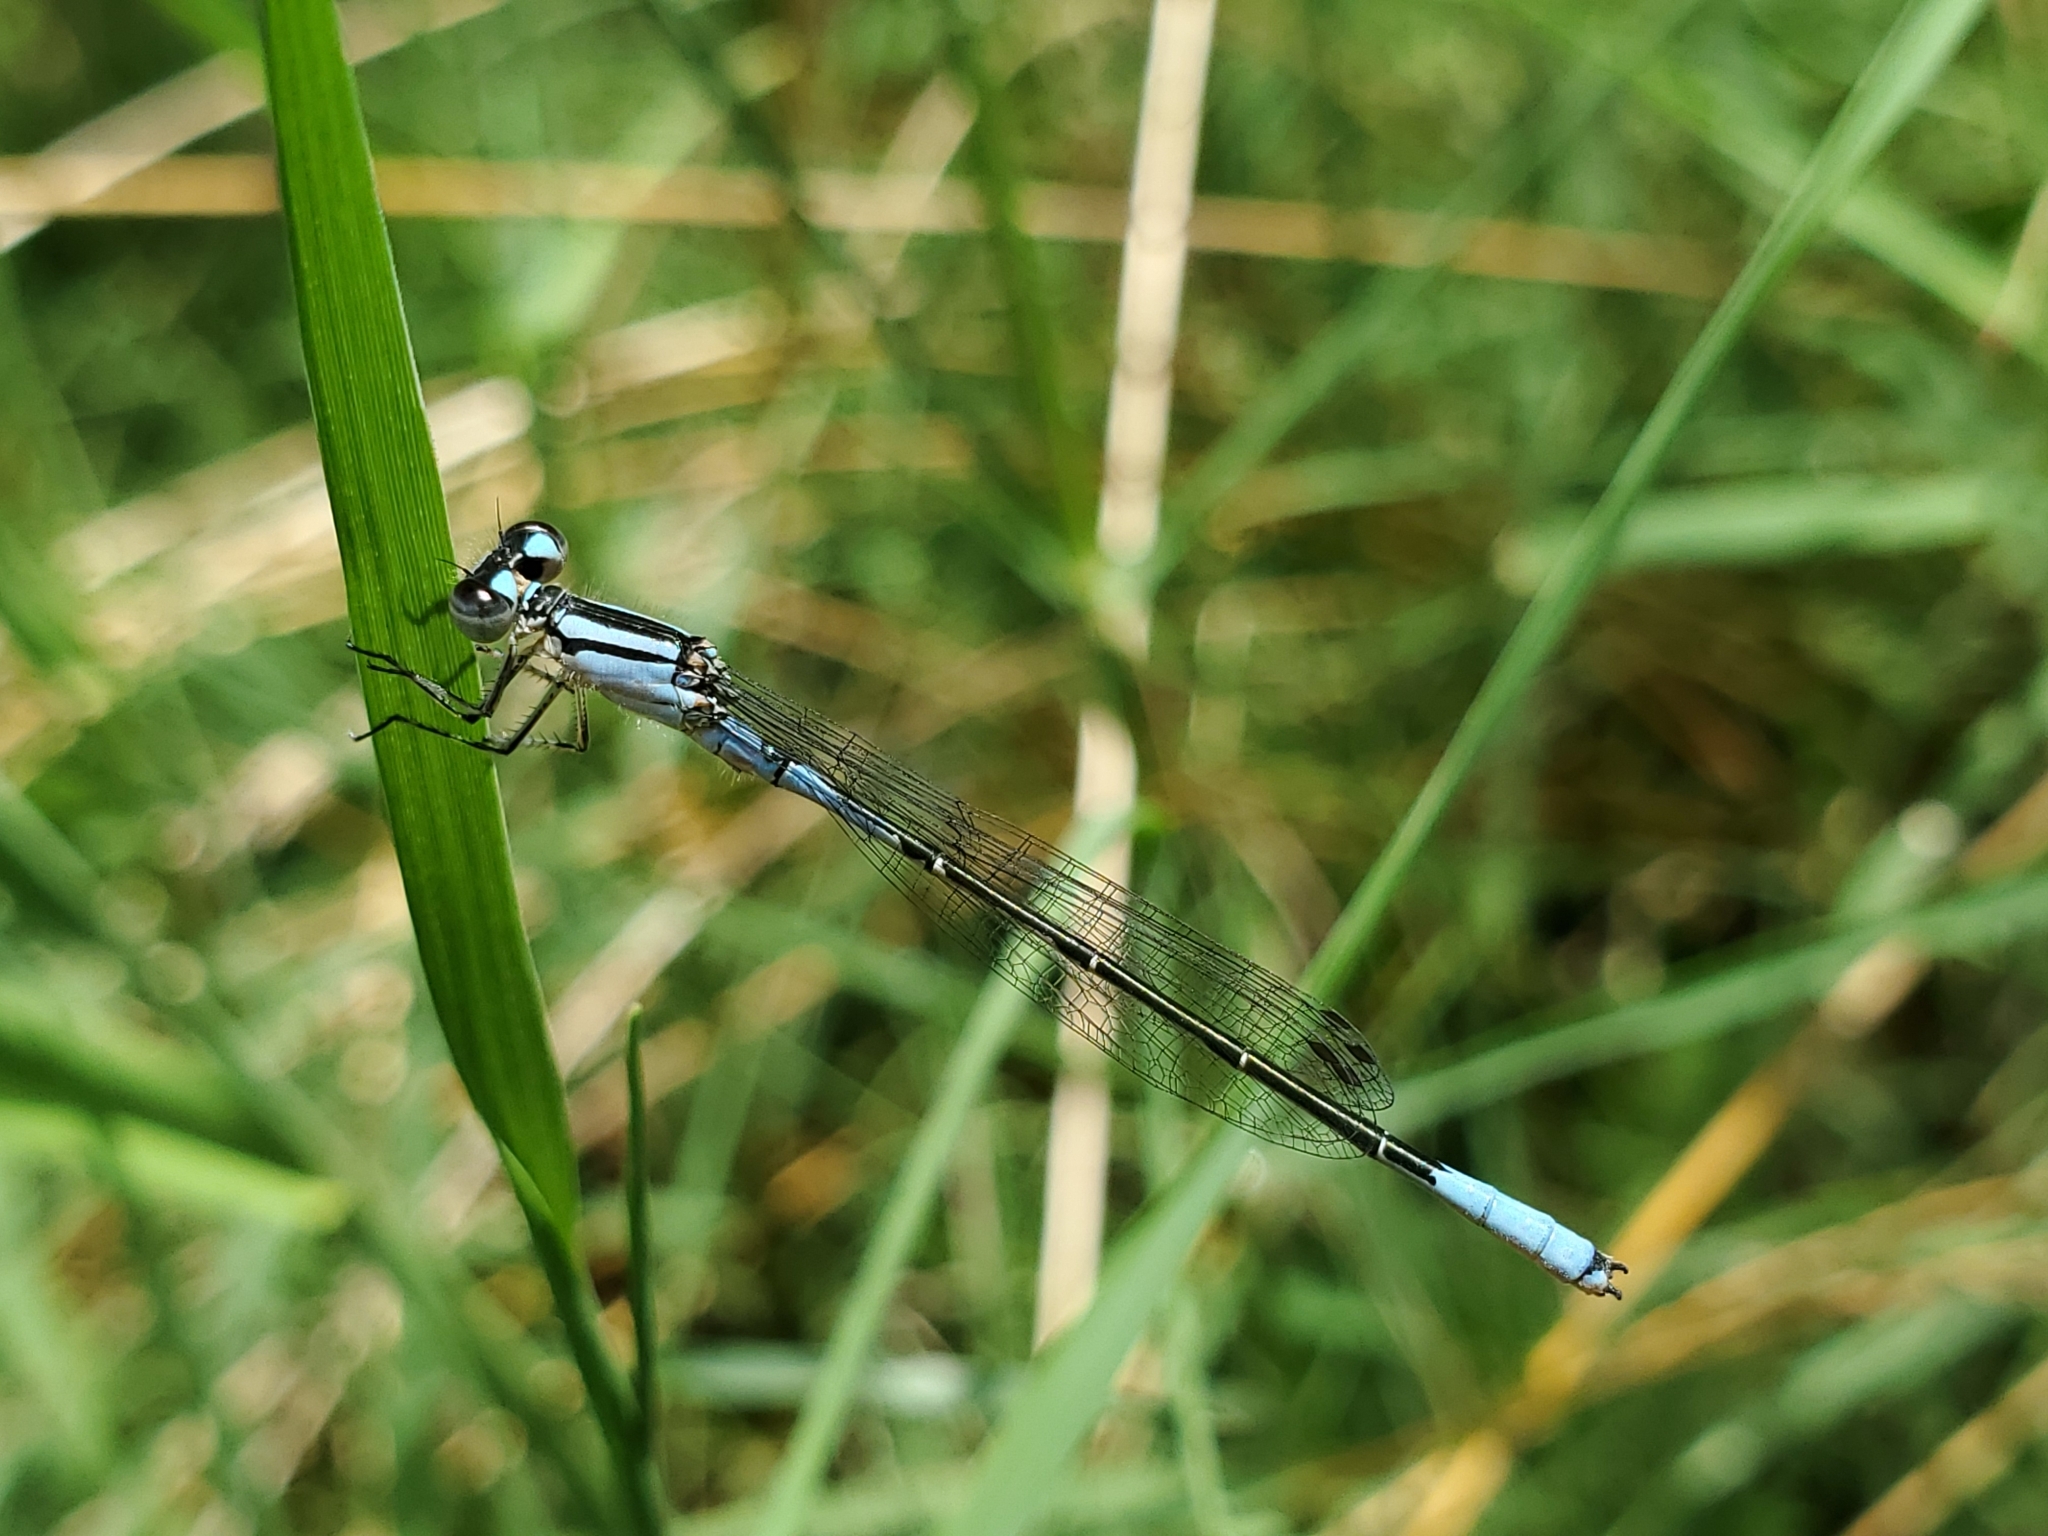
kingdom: Animalia
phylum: Arthropoda
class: Insecta
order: Odonata
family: Coenagrionidae
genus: Enallagma
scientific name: Enallagma aspersum
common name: Azure bluet
